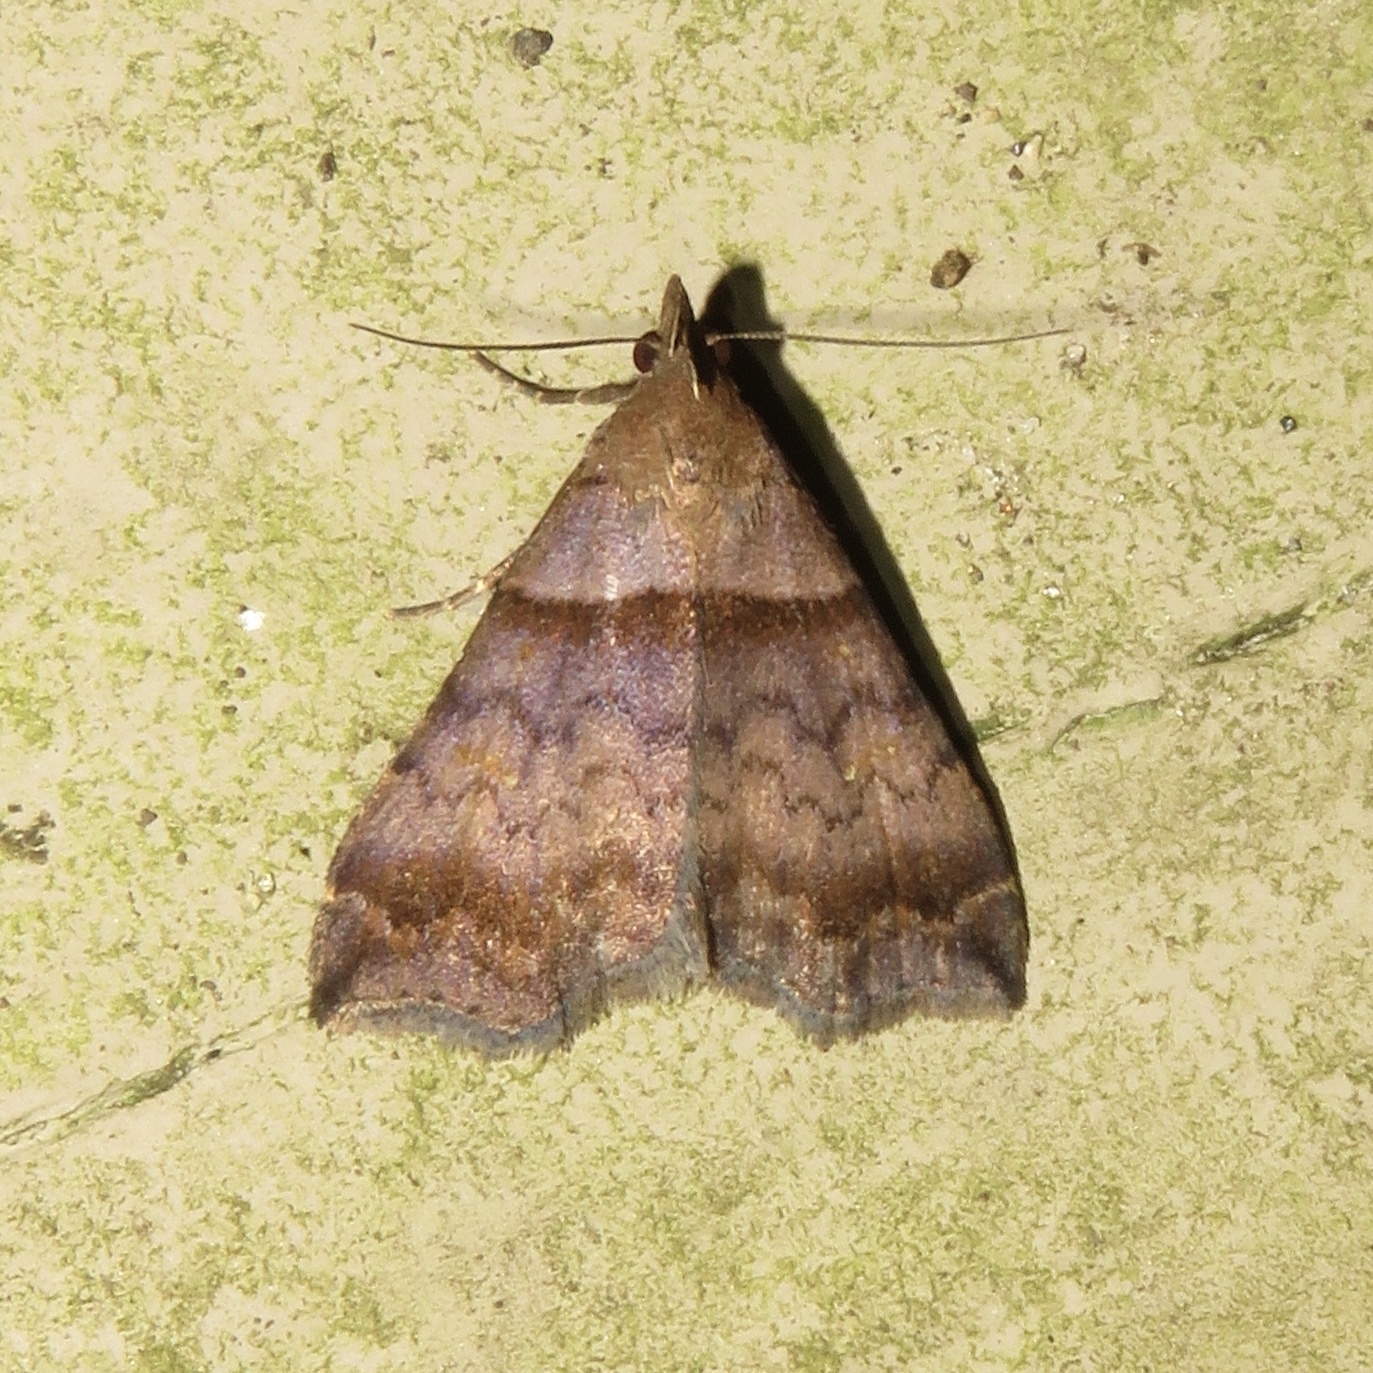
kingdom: Animalia
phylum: Arthropoda
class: Insecta
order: Lepidoptera
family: Erebidae
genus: Lascoria
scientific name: Lascoria ambigualis
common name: Ambiguous moth
